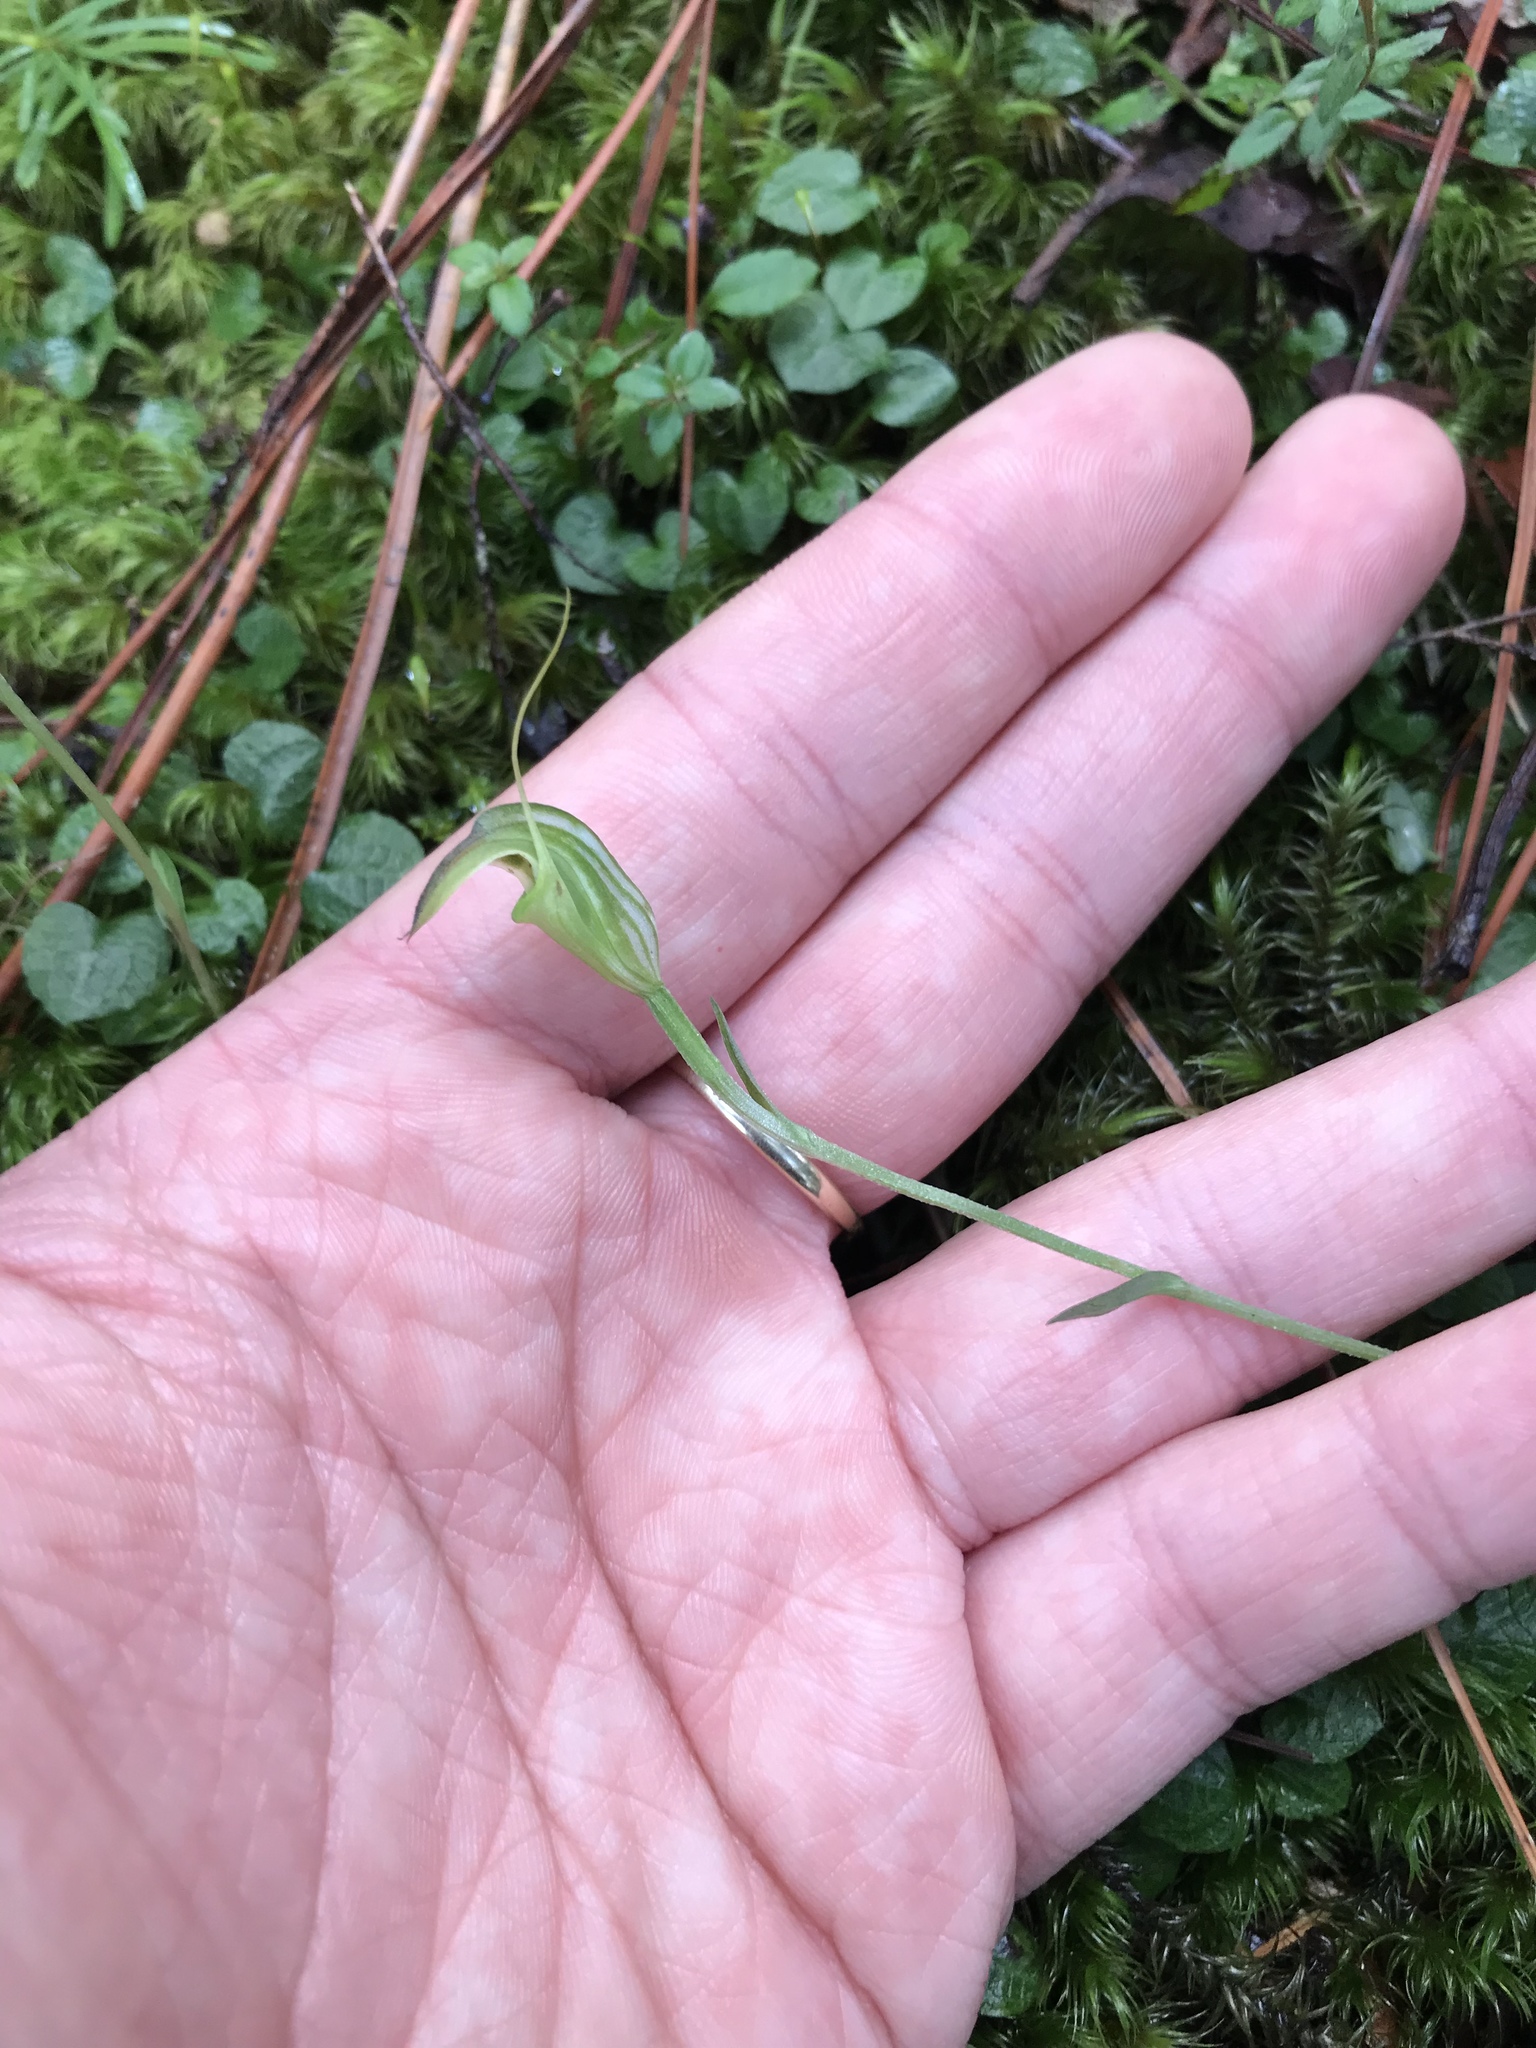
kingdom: Plantae
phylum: Tracheophyta
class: Liliopsida
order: Asparagales
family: Orchidaceae
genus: Pterostylis
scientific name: Pterostylis trullifolia
